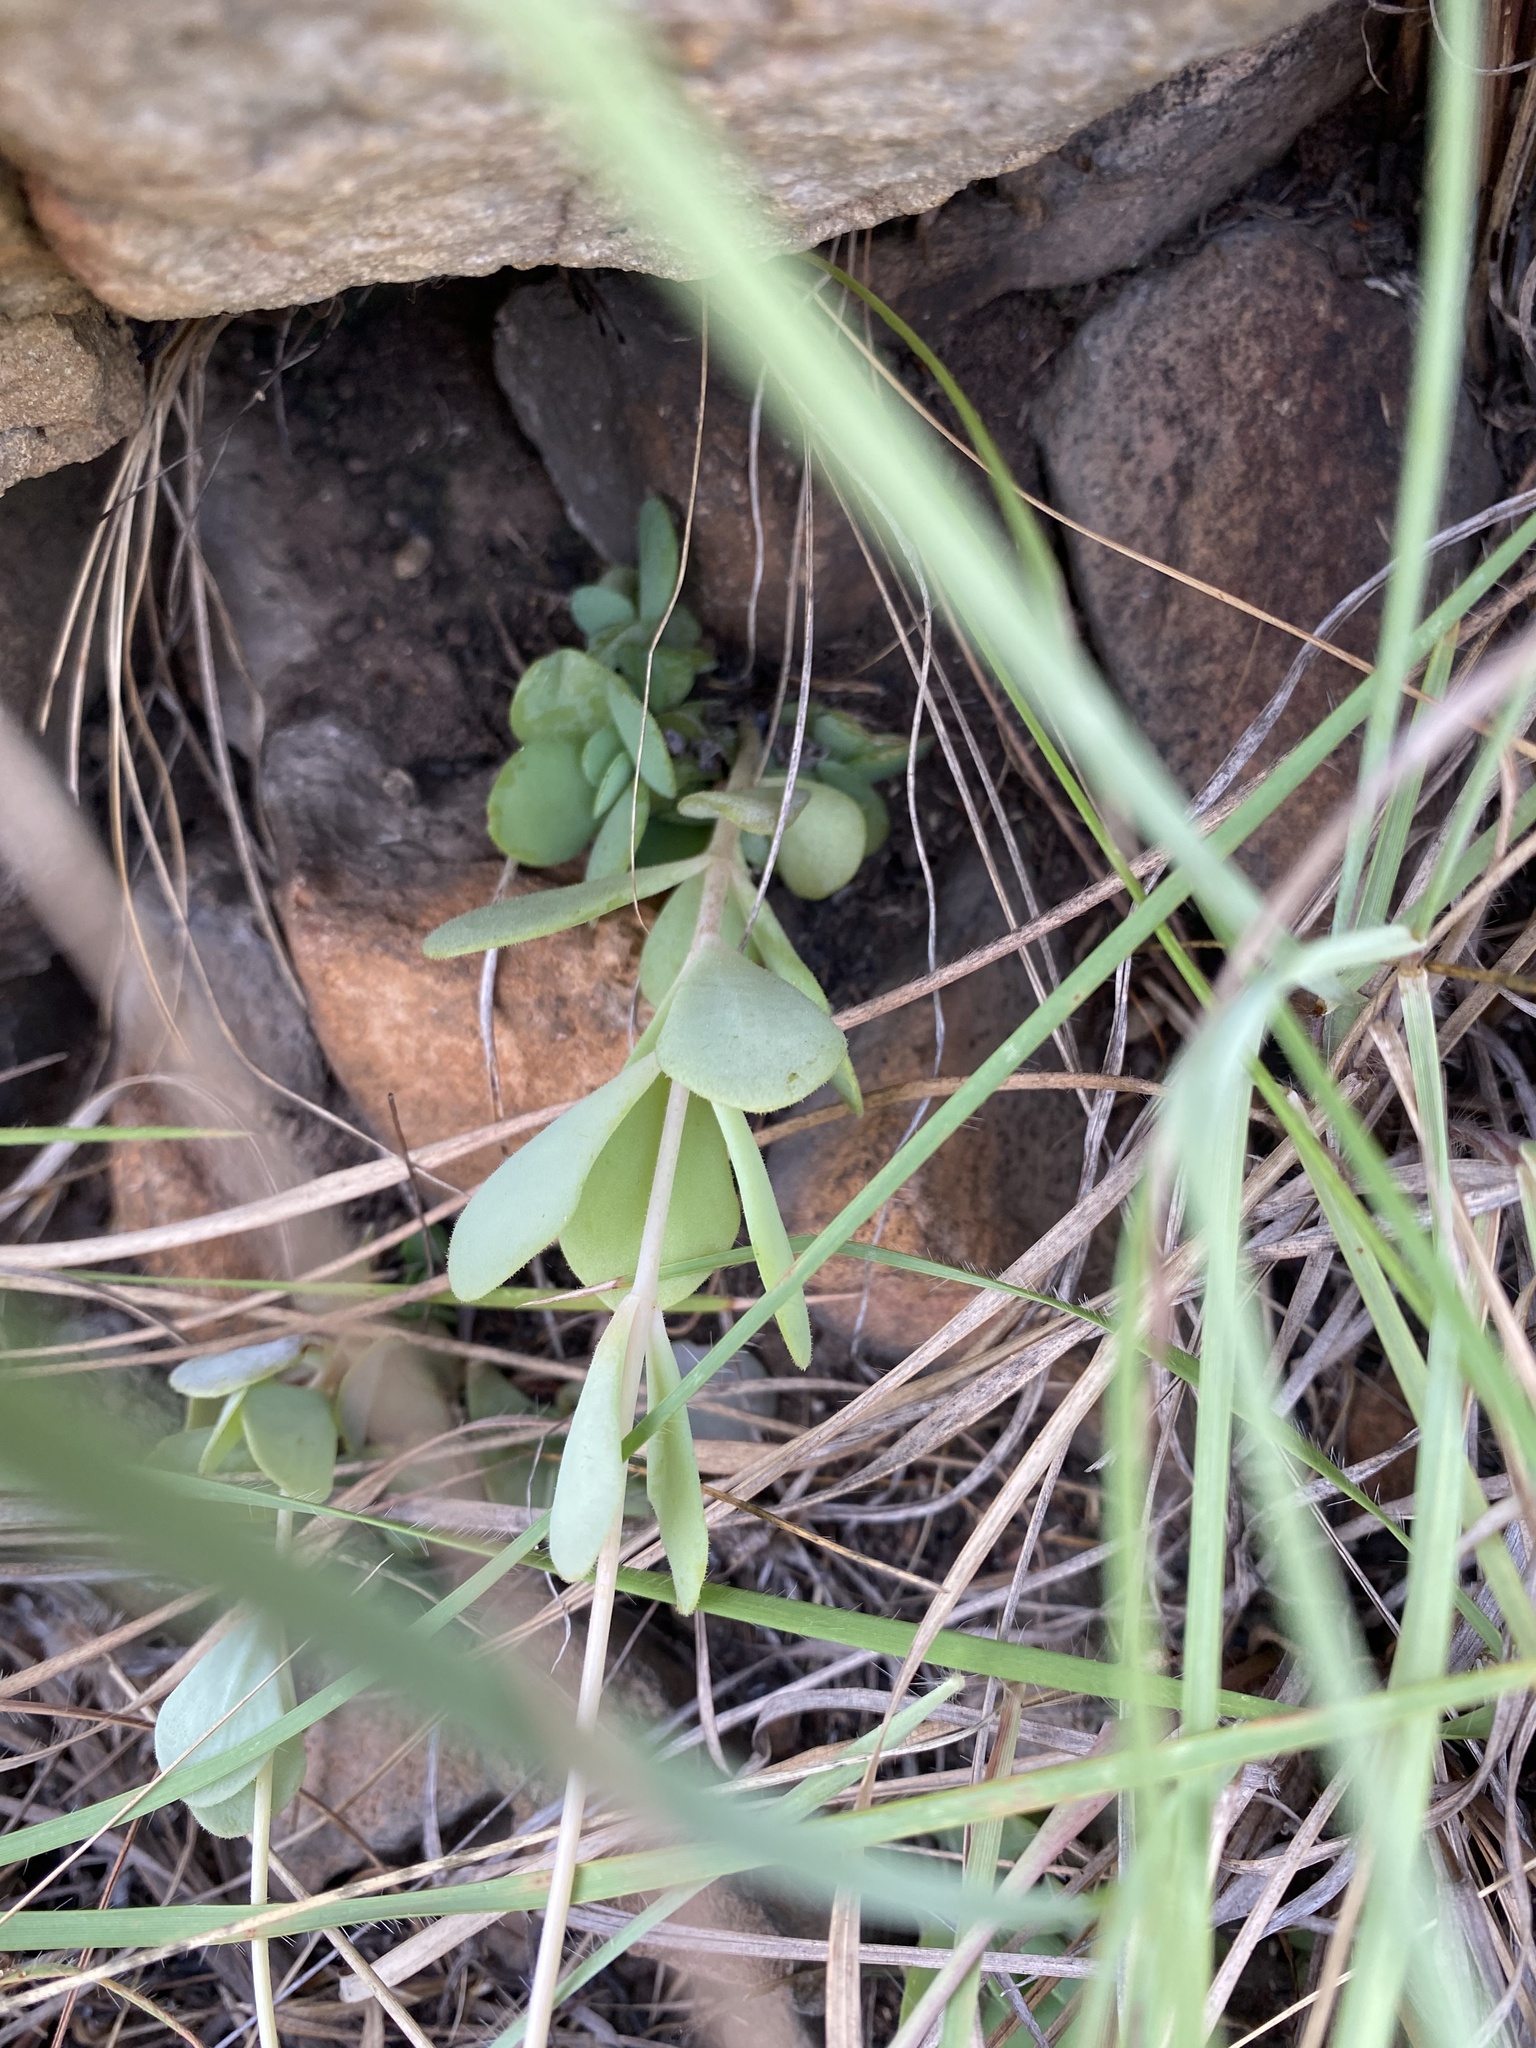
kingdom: Plantae
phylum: Tracheophyta
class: Magnoliopsida
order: Saxifragales
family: Crassulaceae
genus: Kalanchoe
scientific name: Kalanchoe rotundifolia
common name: Common kalanchoe
